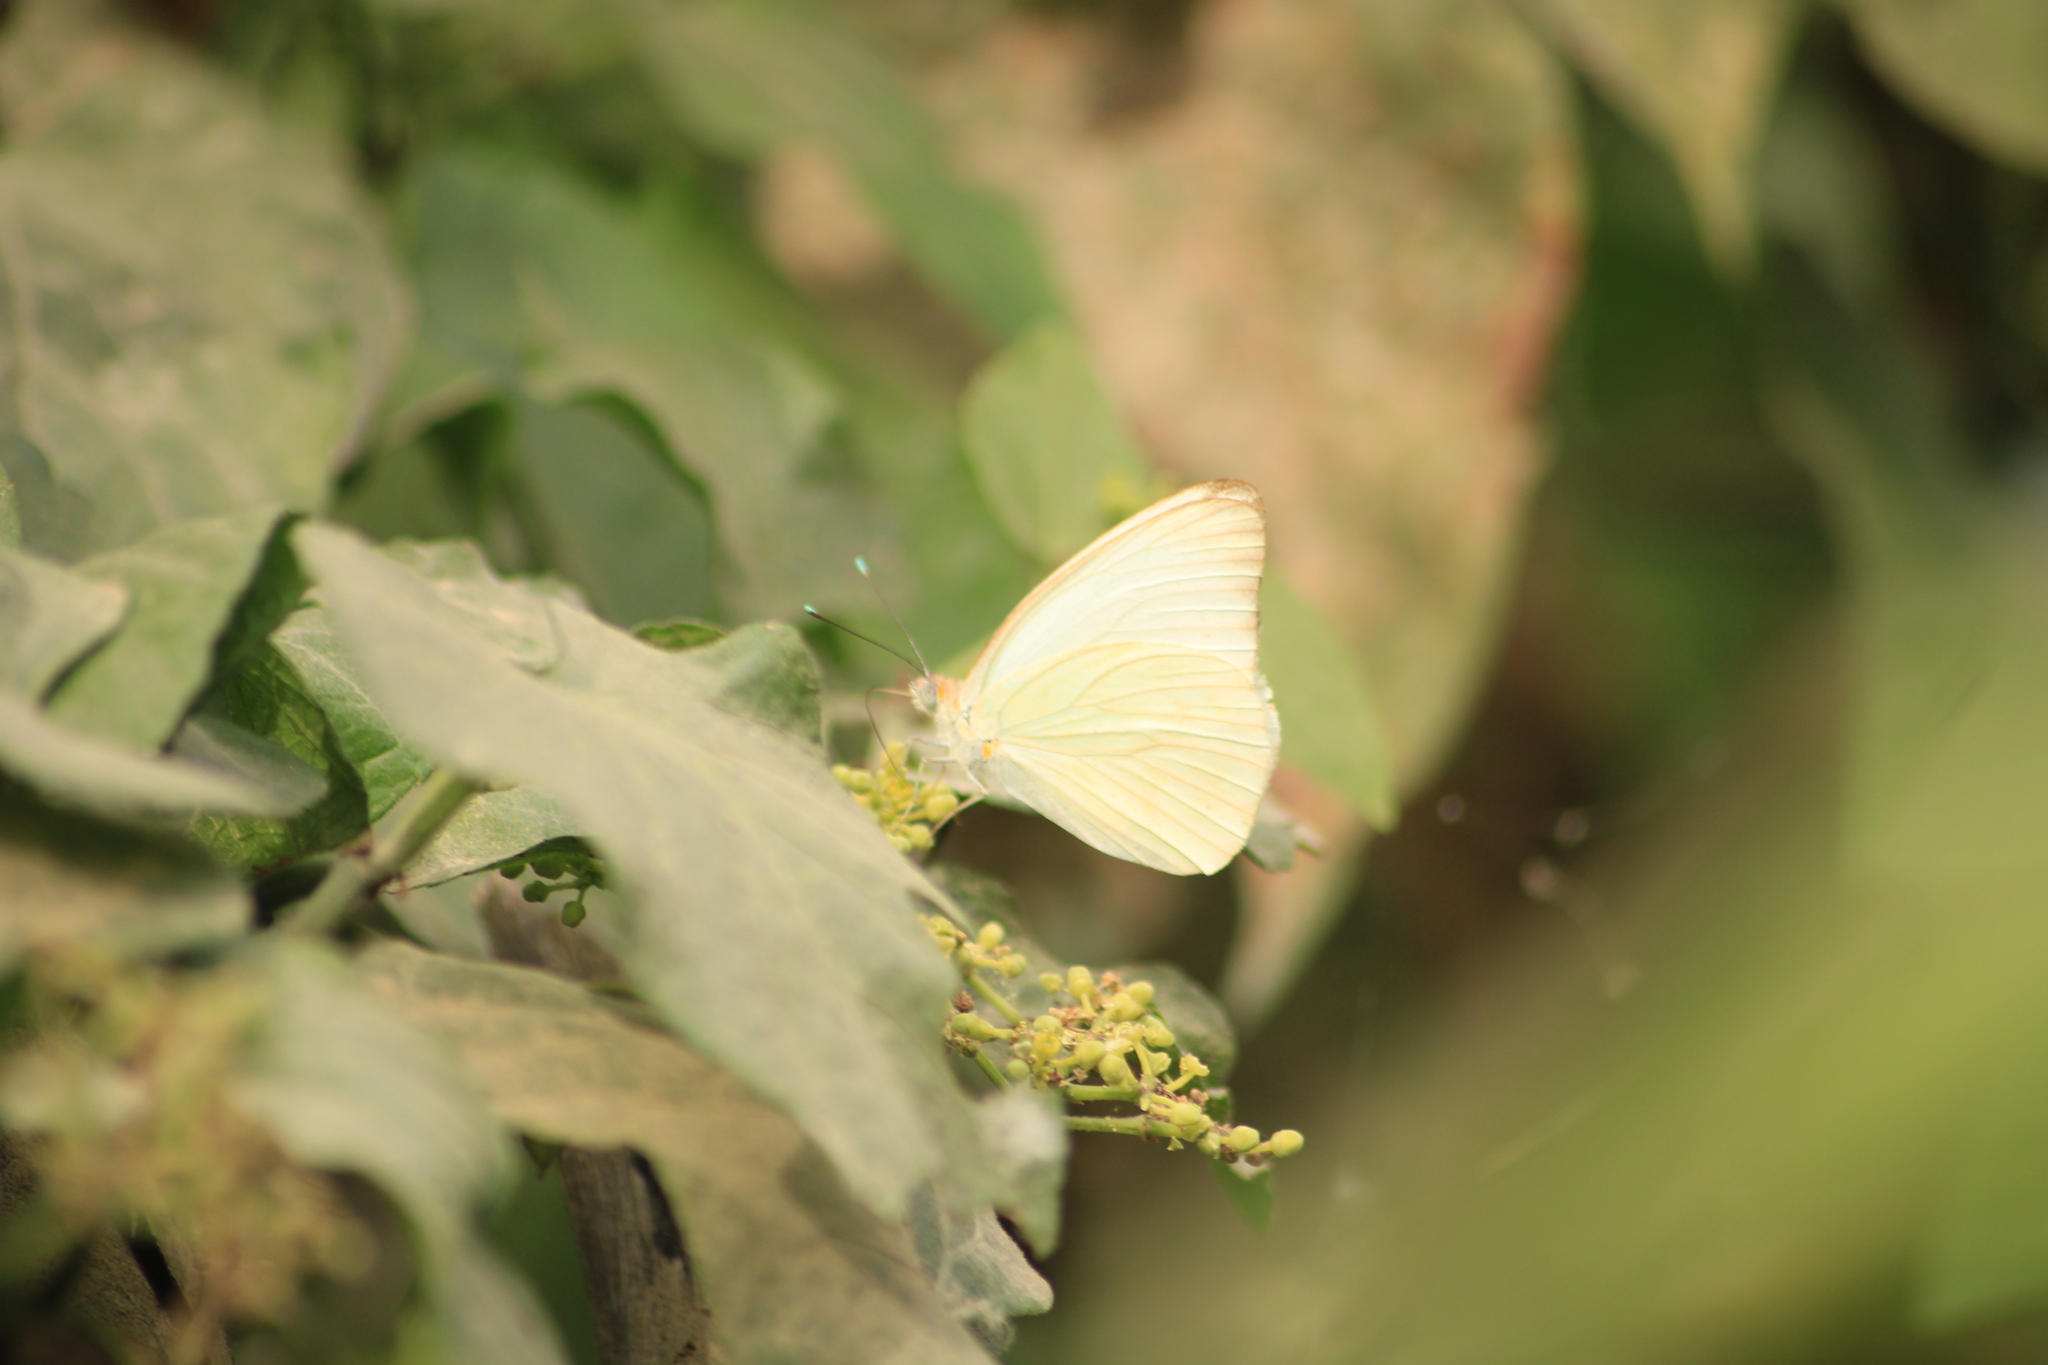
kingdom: Animalia
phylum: Arthropoda
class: Insecta
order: Lepidoptera
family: Pieridae
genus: Ascia
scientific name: Ascia monuste
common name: Great southern white
